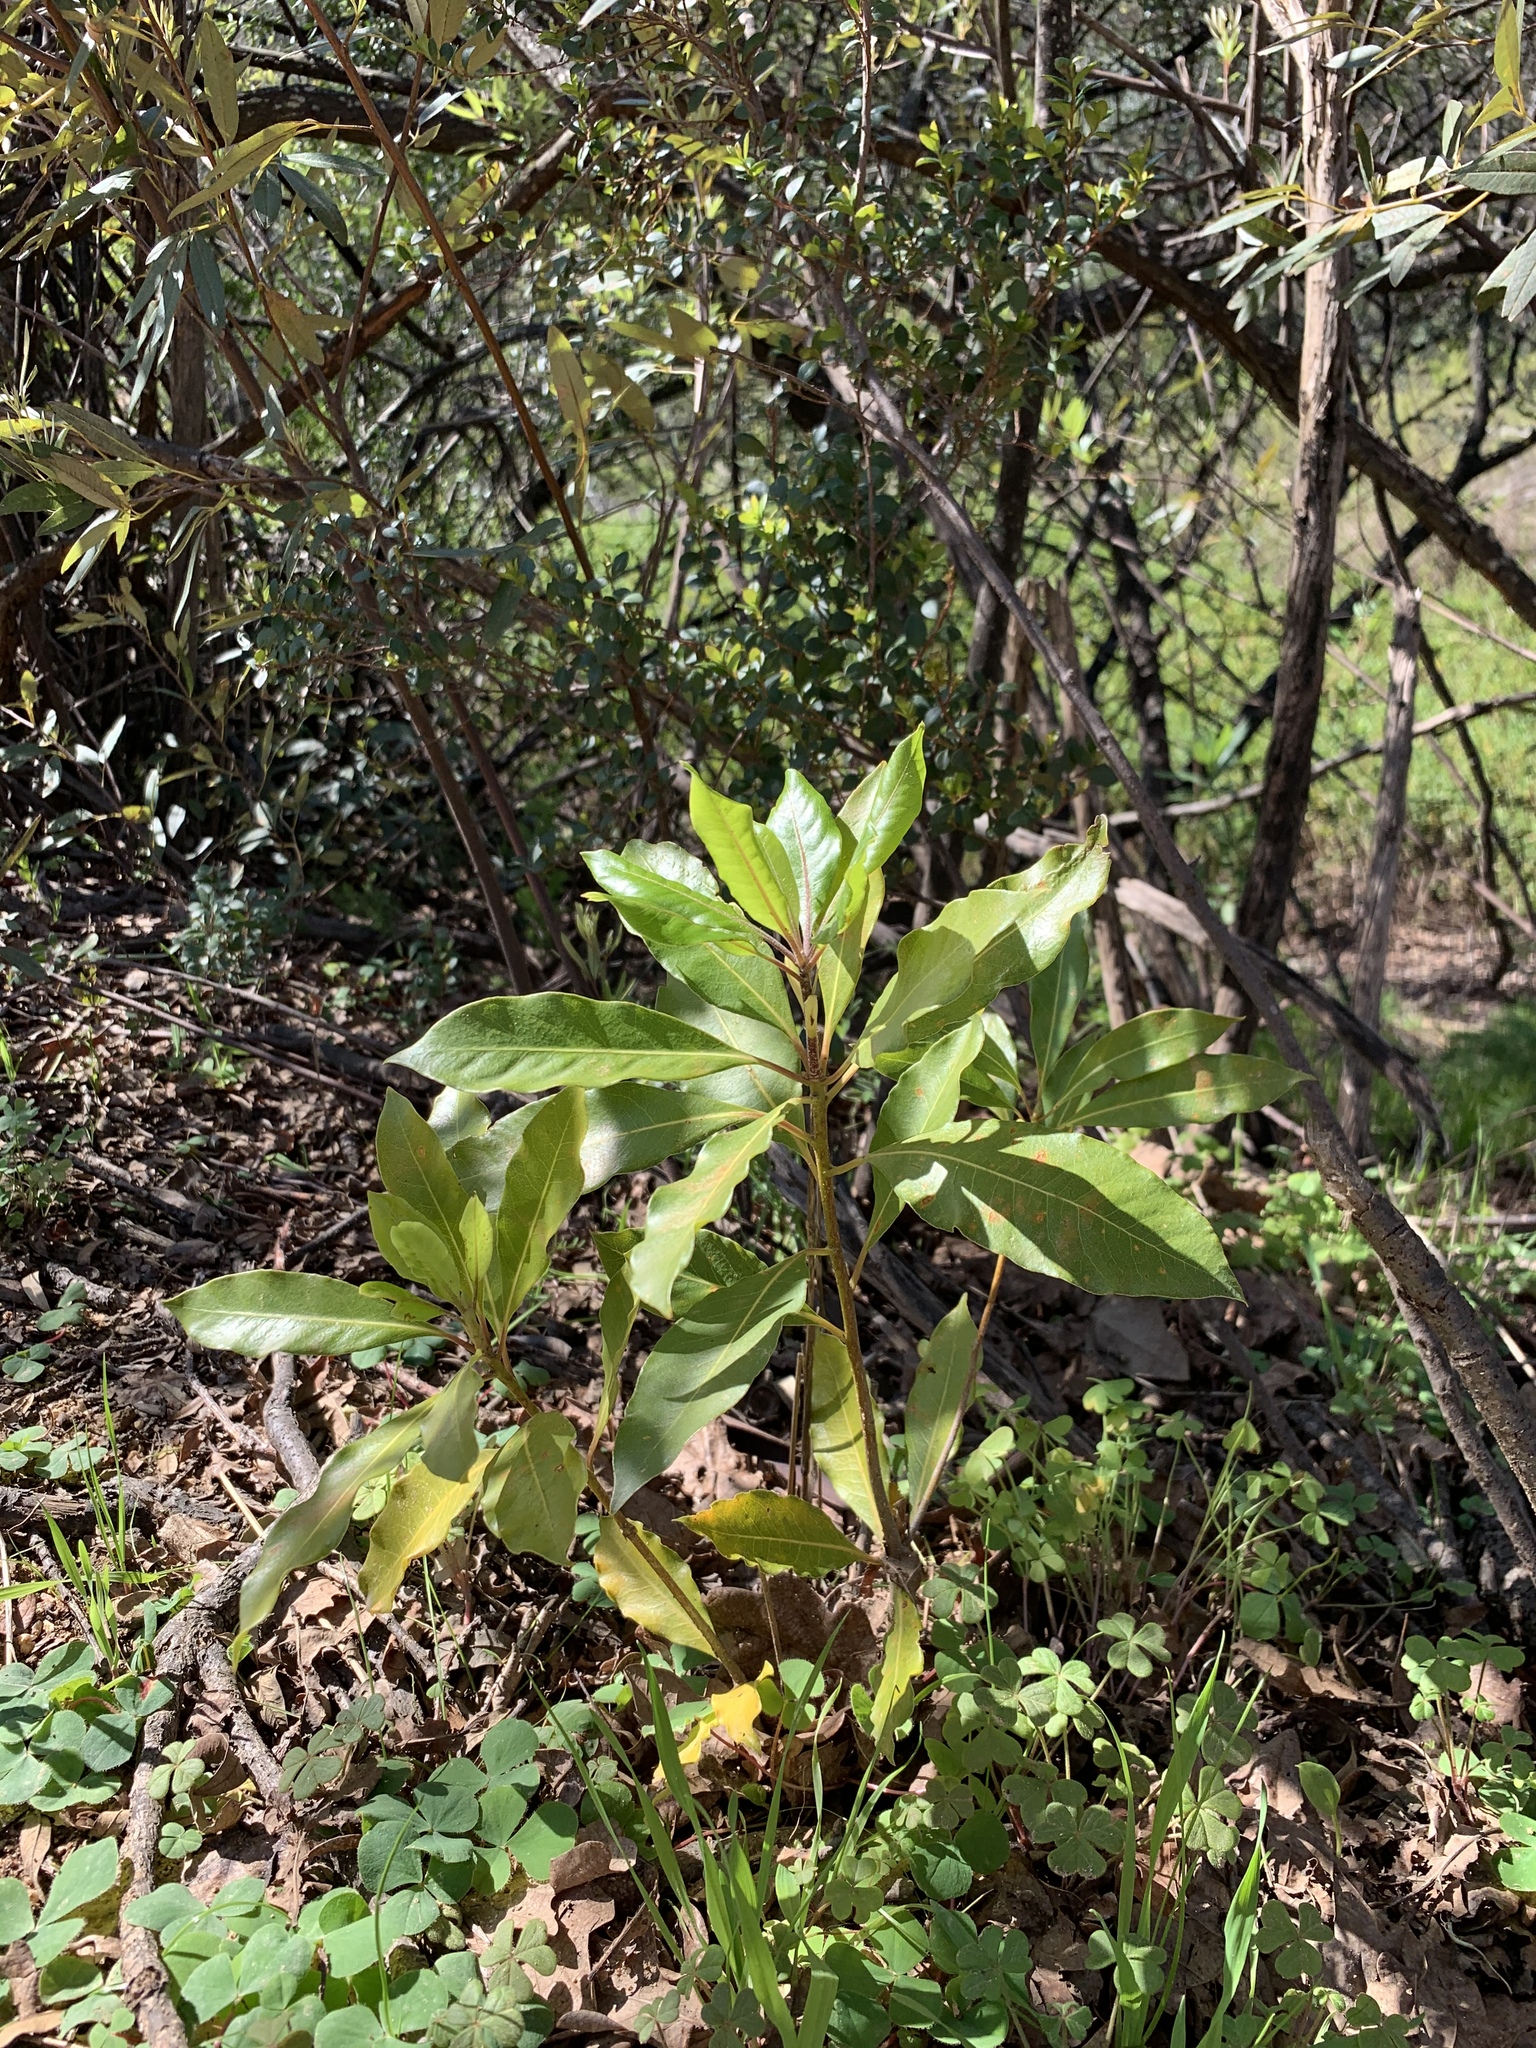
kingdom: Plantae
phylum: Tracheophyta
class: Magnoliopsida
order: Apiales
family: Pittosporaceae
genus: Pittosporum
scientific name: Pittosporum undulatum
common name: Australian cheesewood
